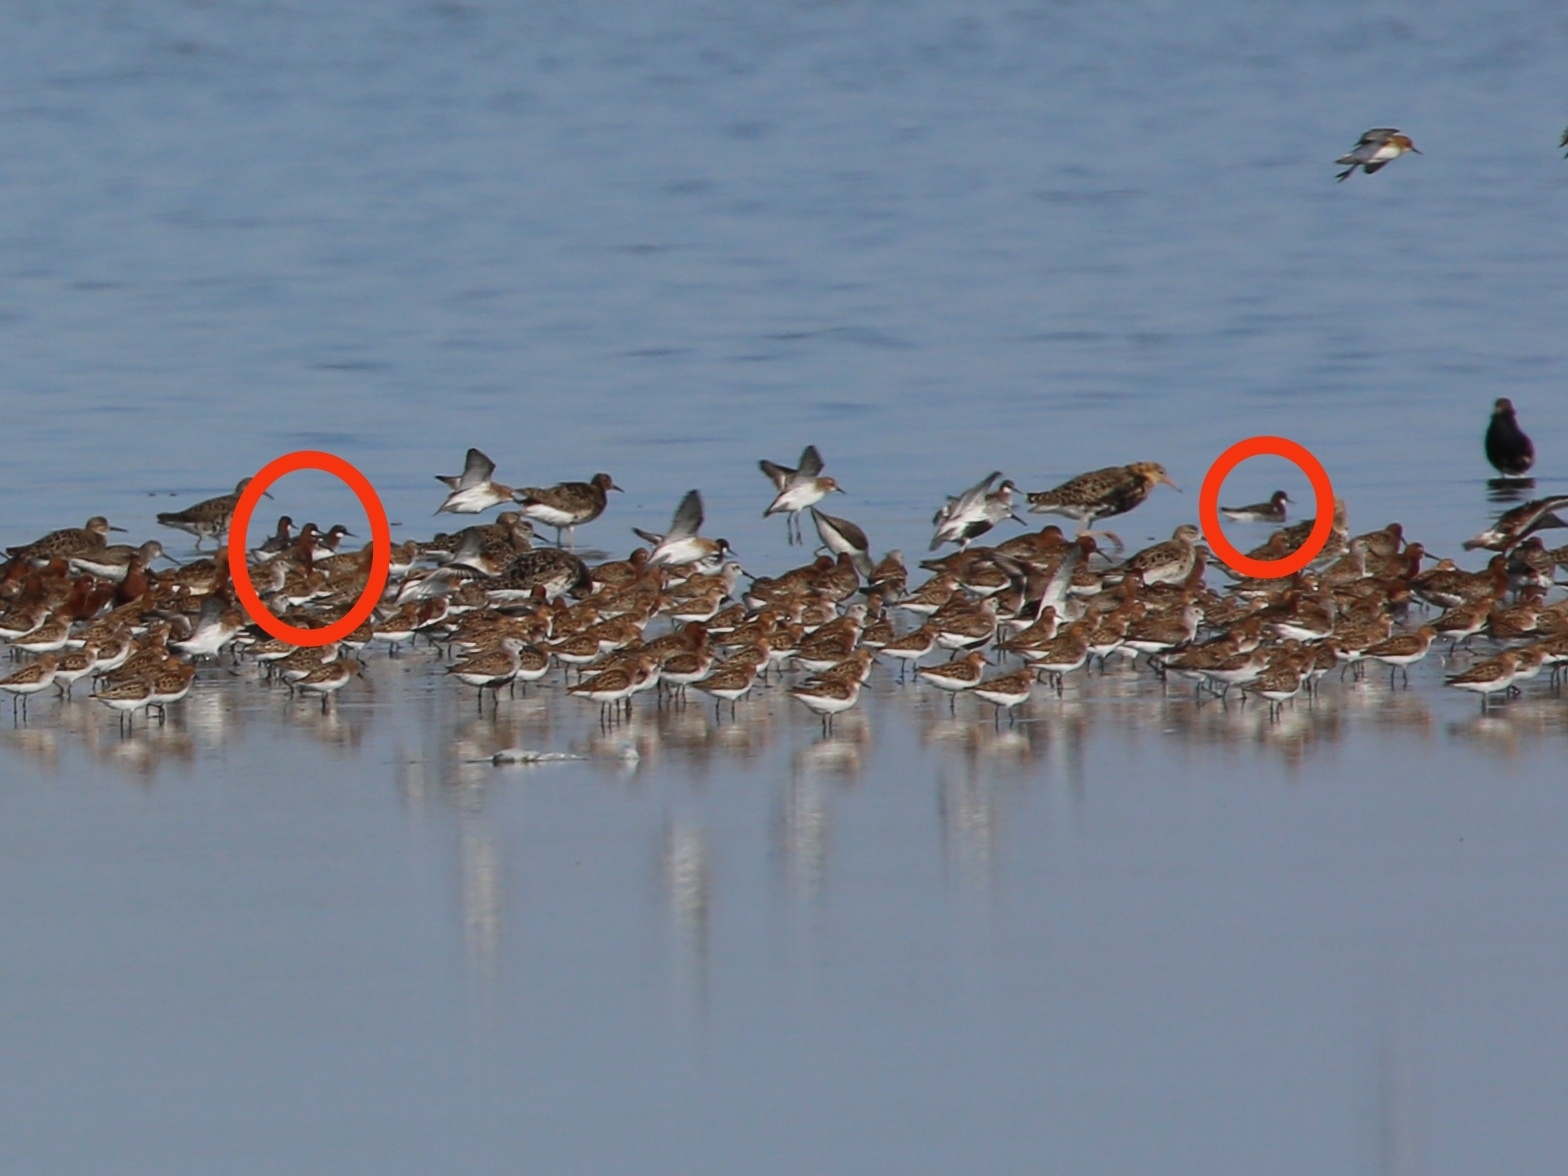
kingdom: Animalia
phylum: Chordata
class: Aves
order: Charadriiformes
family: Scolopacidae
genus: Phalaropus
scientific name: Phalaropus lobatus
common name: Red-necked phalarope
